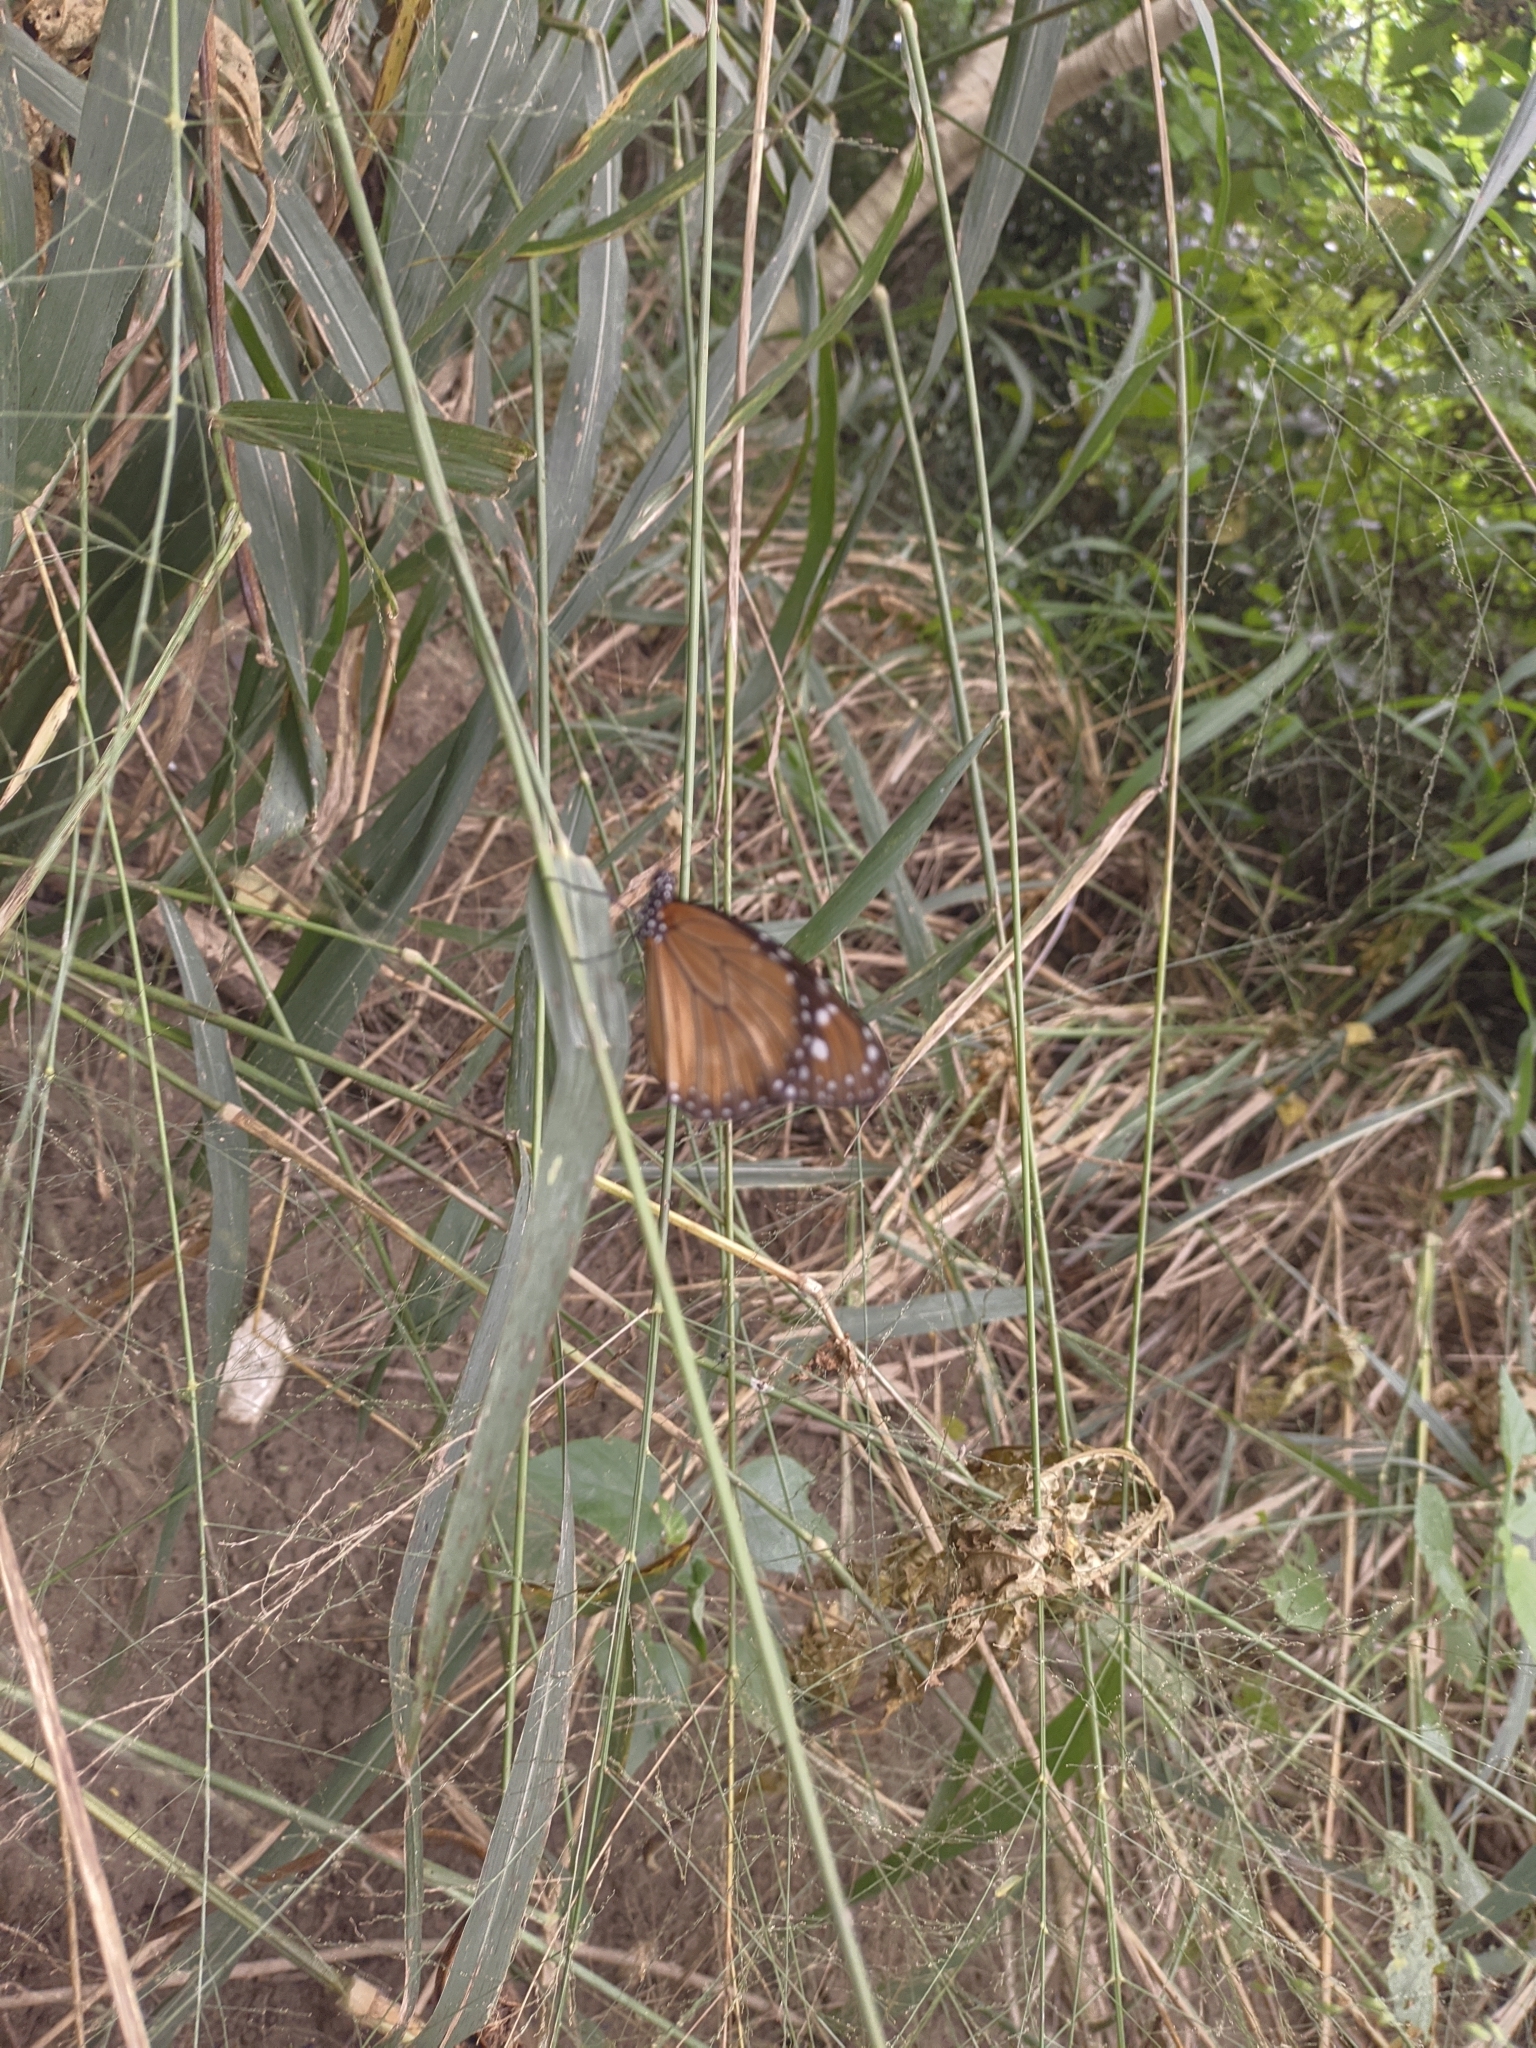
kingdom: Animalia
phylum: Arthropoda
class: Insecta
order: Lepidoptera
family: Nymphalidae
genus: Danaus
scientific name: Danaus eresimus
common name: Soldier
